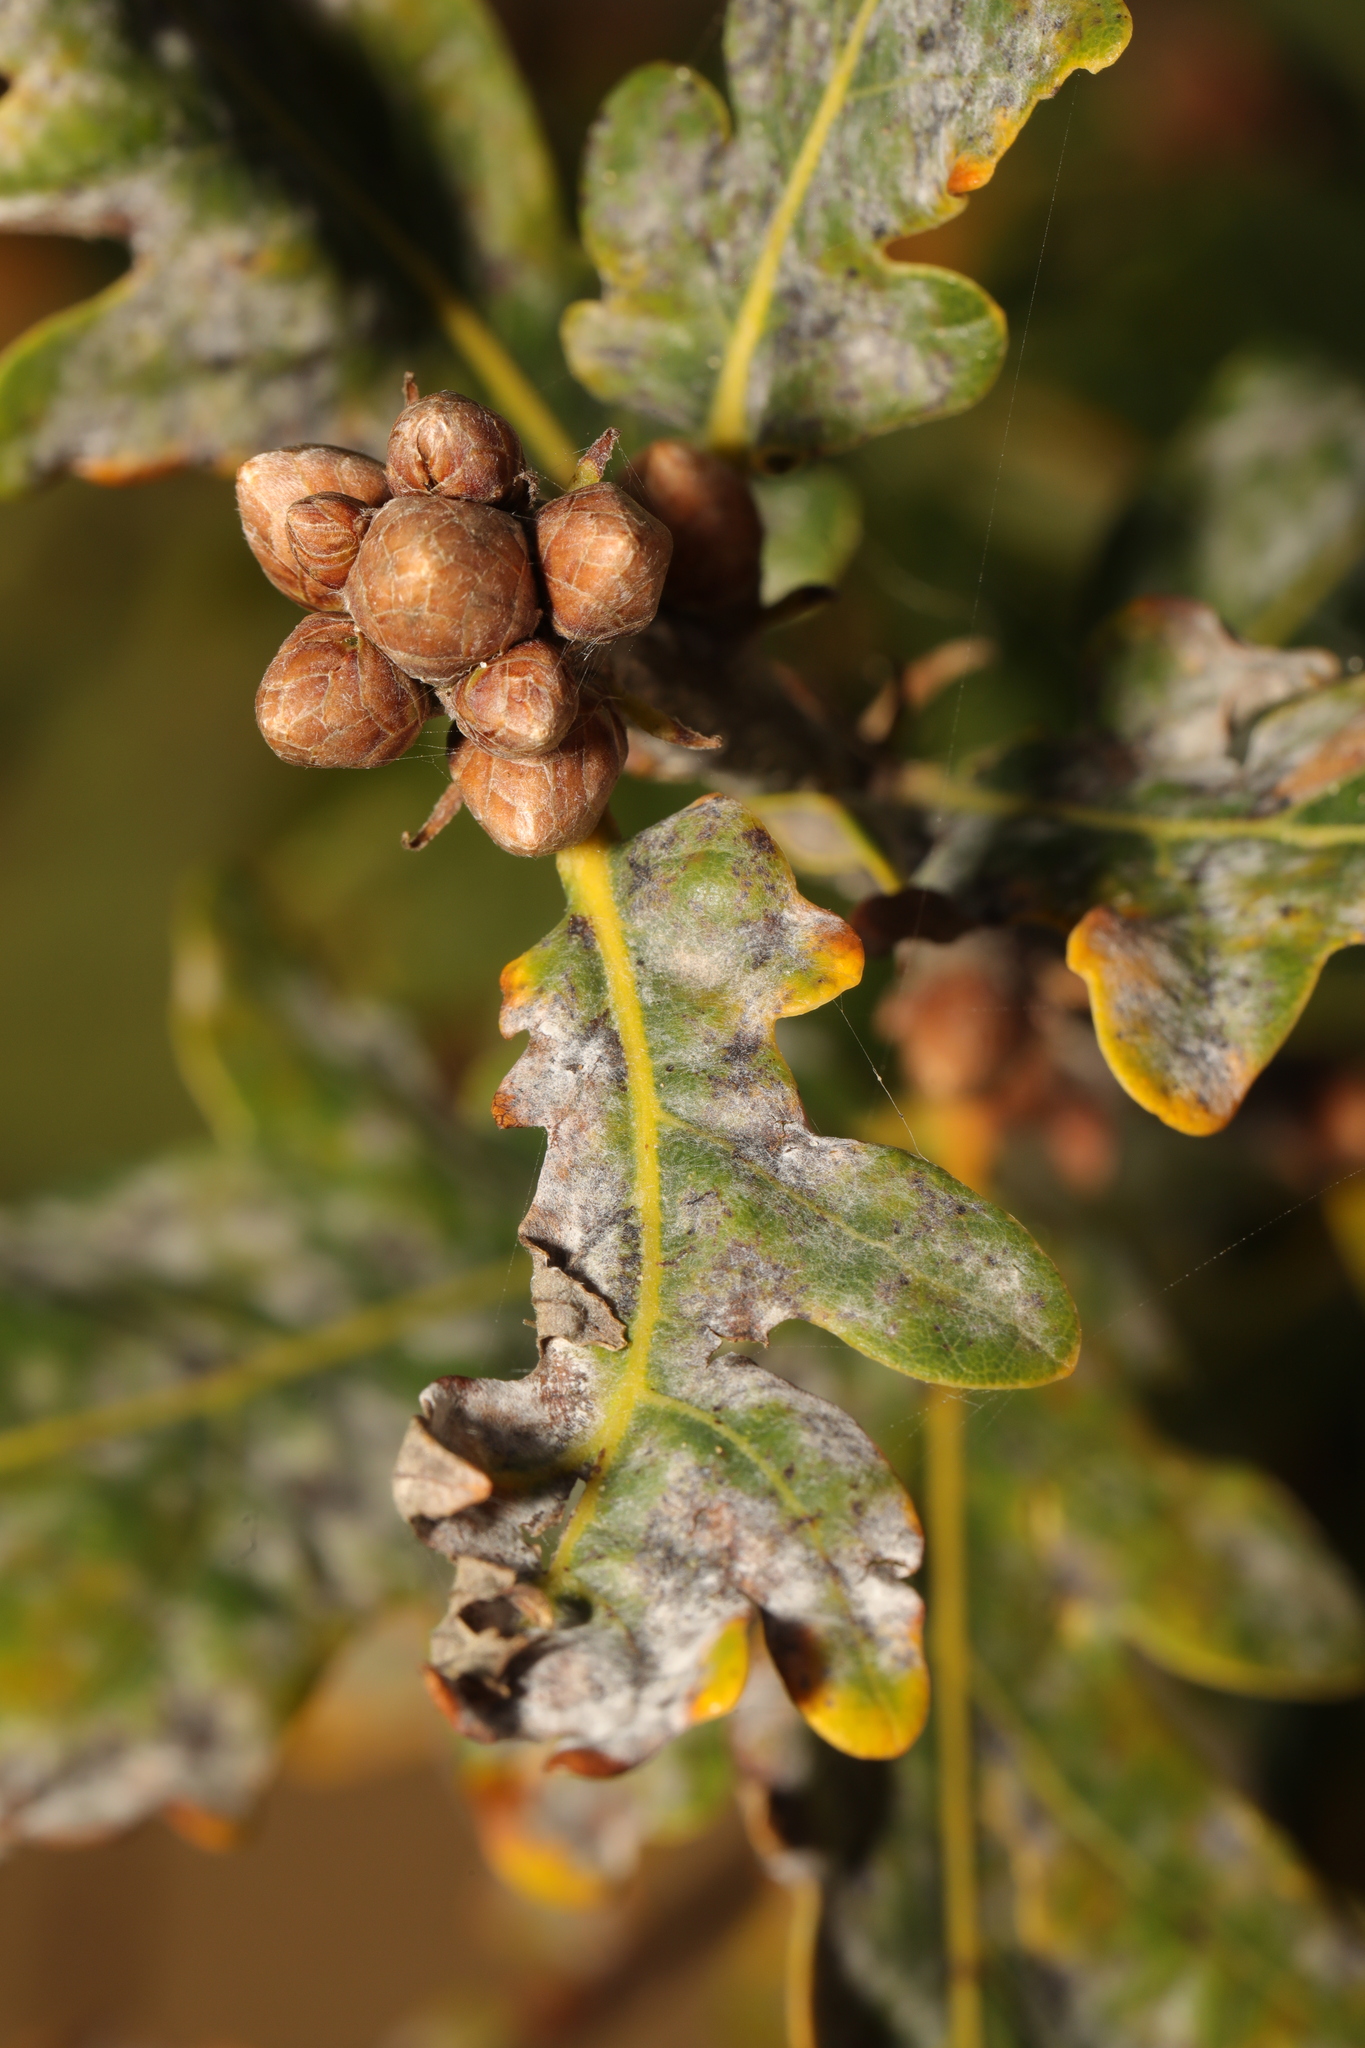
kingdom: Fungi
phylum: Ascomycota
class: Leotiomycetes
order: Helotiales
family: Erysiphaceae
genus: Erysiphe
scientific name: Erysiphe alphitoides
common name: Oak mildew
